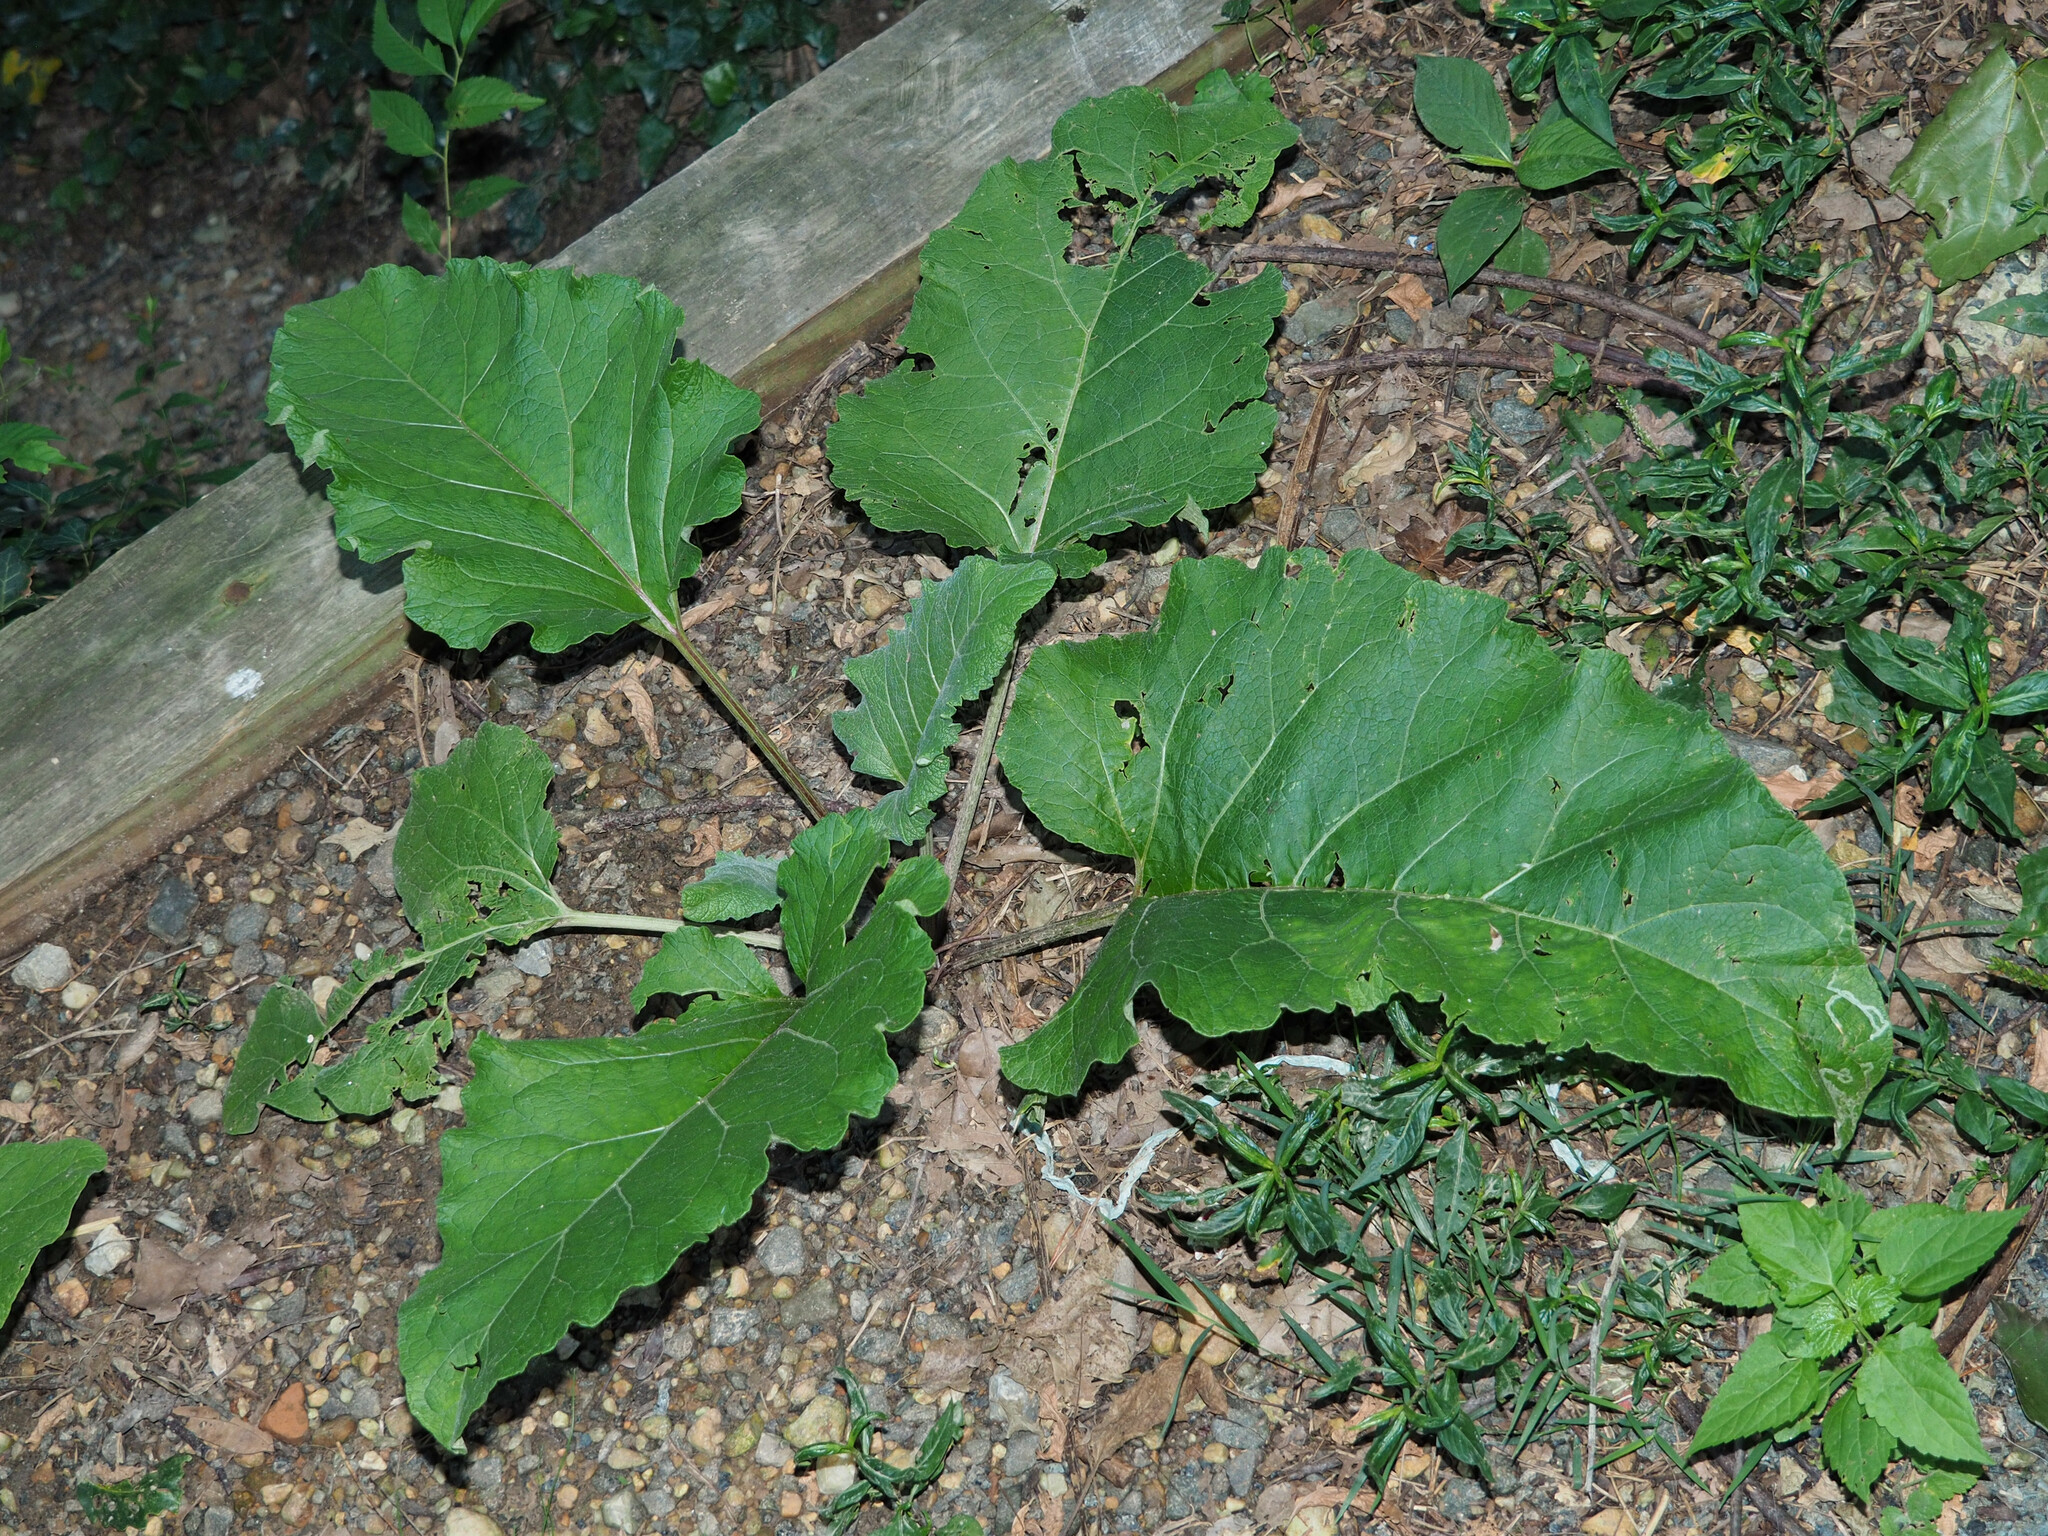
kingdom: Animalia
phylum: Arthropoda
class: Insecta
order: Diptera
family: Agromyzidae
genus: Liriomyza
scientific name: Liriomyza arctii
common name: Burdock leafminer
